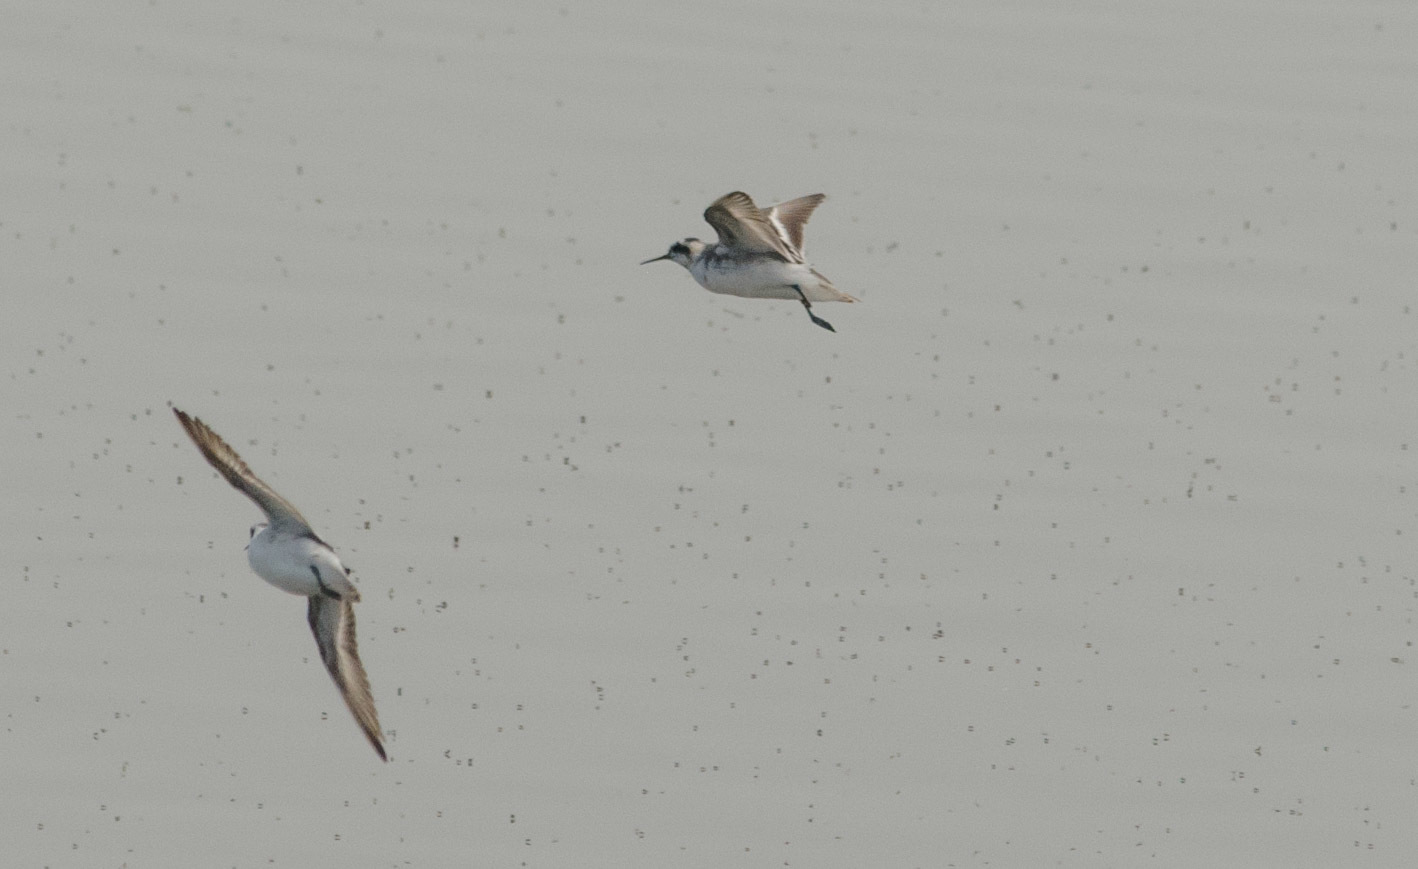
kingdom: Animalia
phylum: Chordata
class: Aves
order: Charadriiformes
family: Scolopacidae
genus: Phalaropus
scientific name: Phalaropus lobatus
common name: Red-necked phalarope
